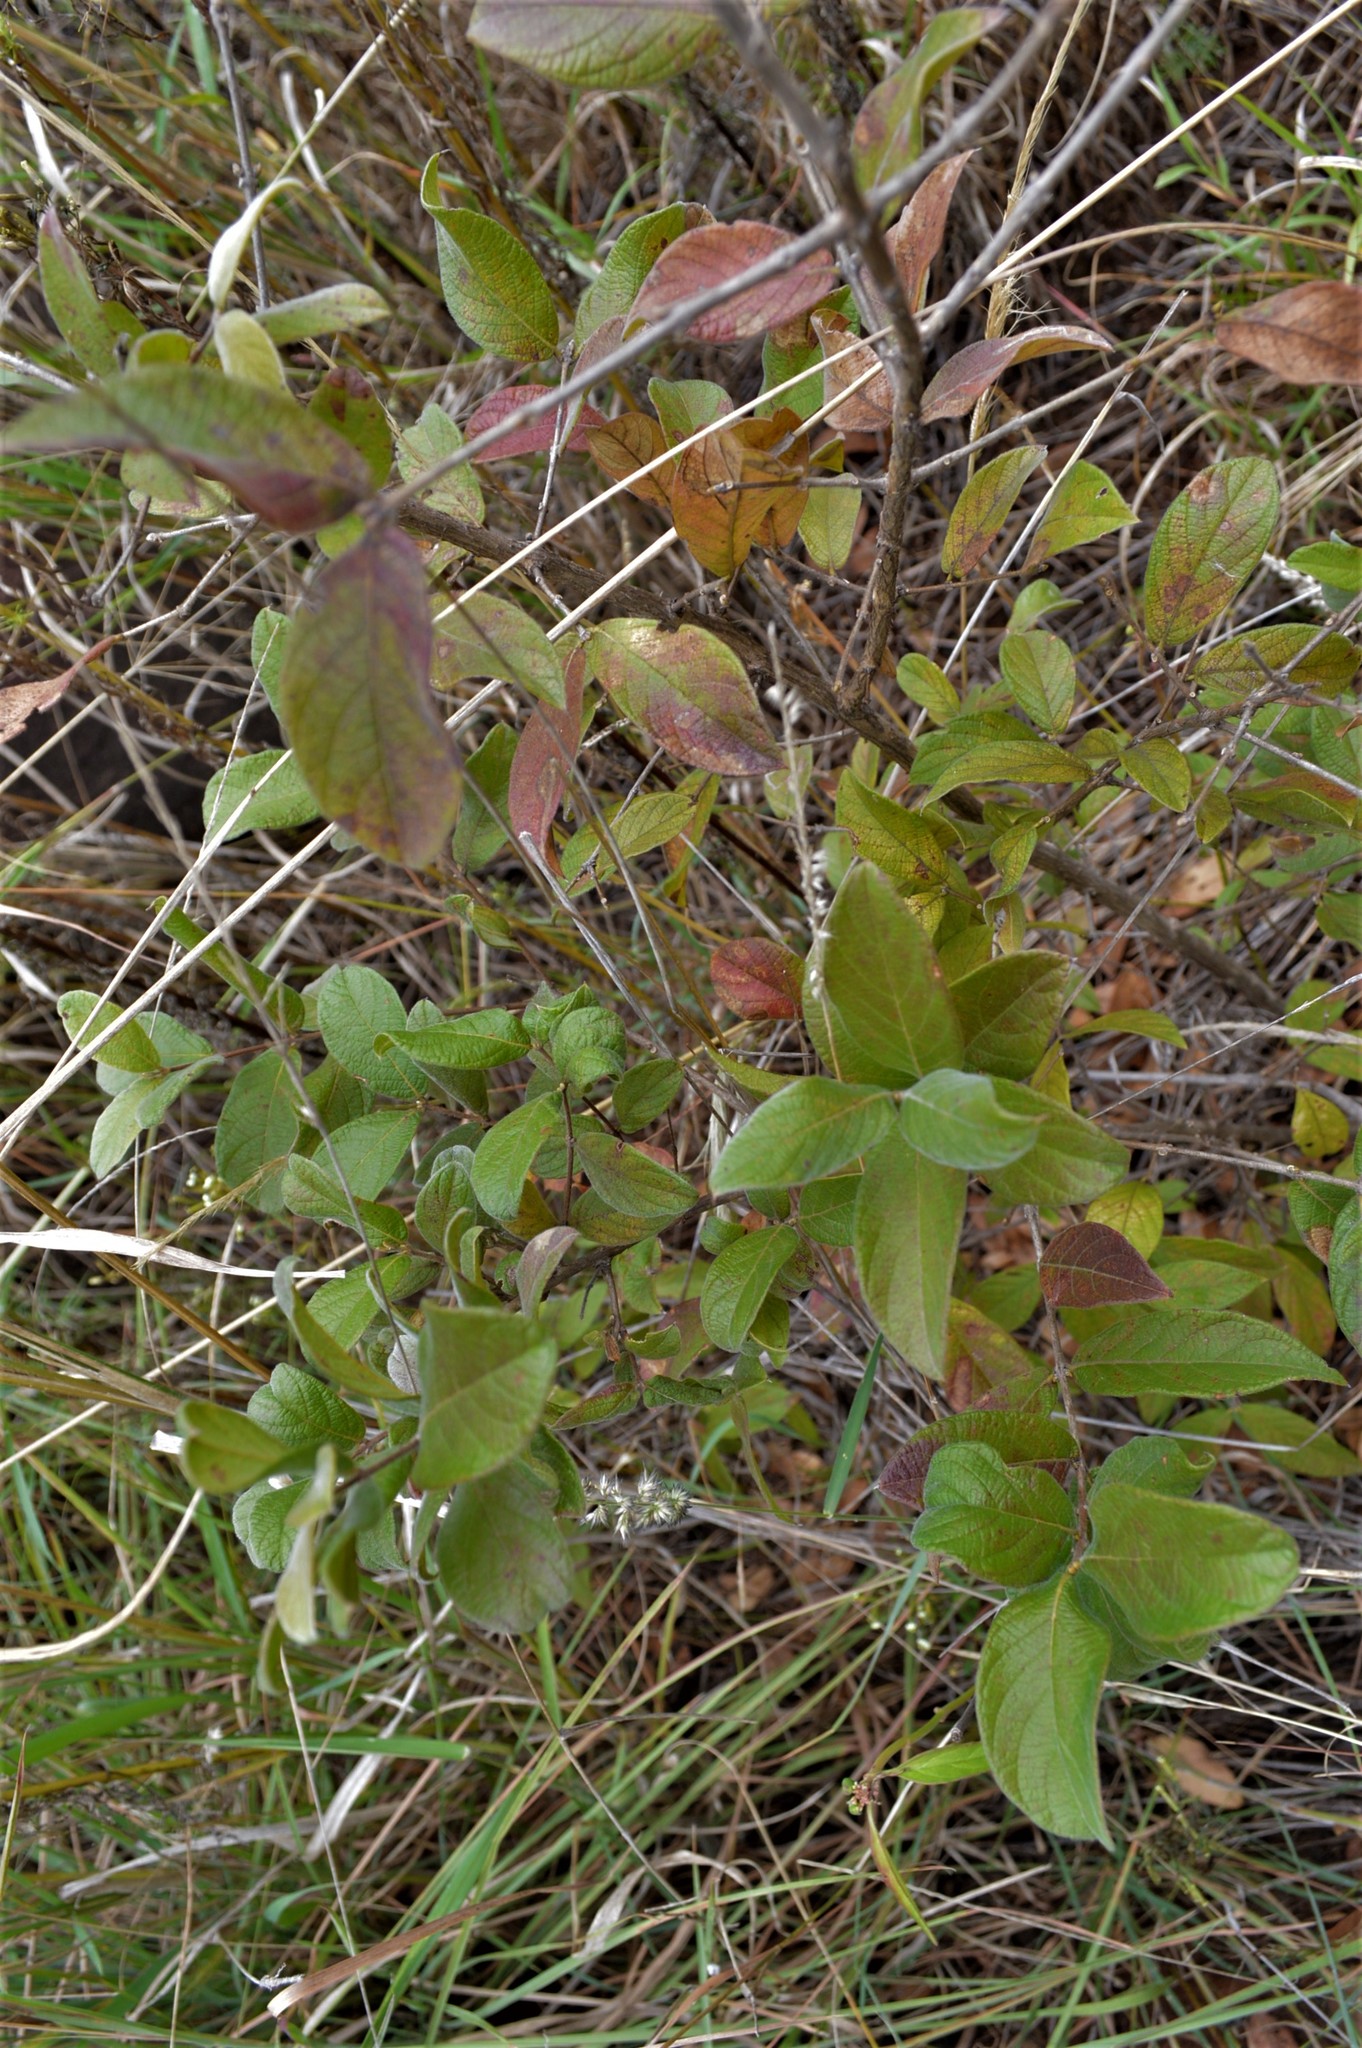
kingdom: Plantae
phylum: Tracheophyta
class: Magnoliopsida
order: Myrtales
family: Combretaceae
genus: Combretum
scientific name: Combretum erythrophyllum
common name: Bush-willow
